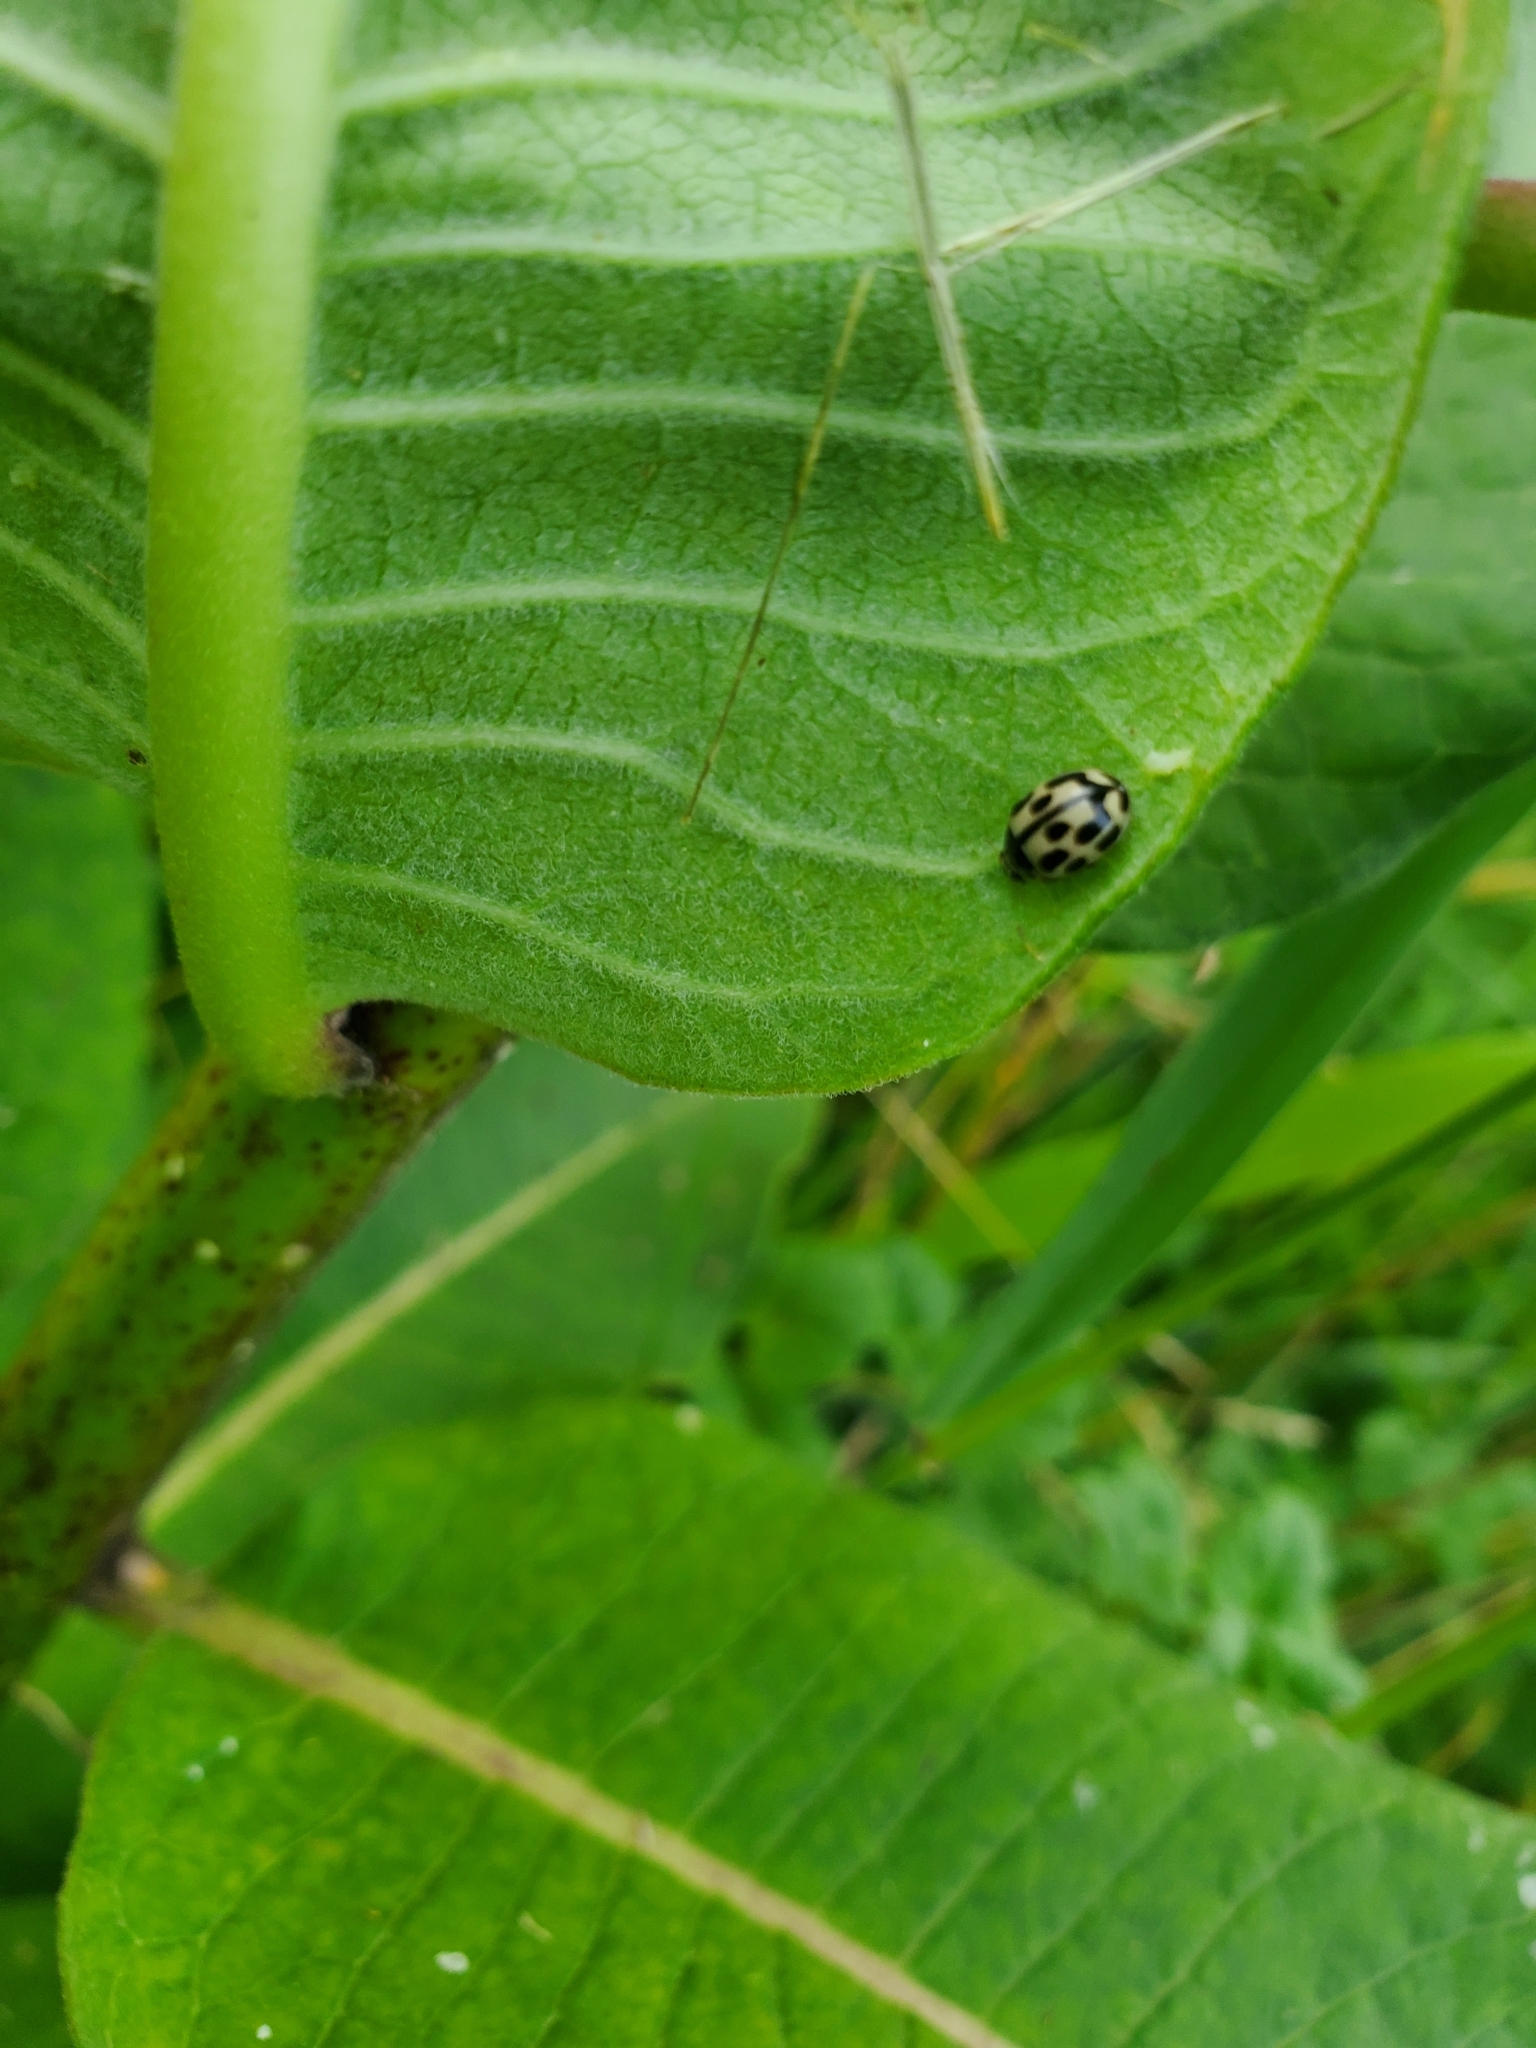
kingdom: Animalia
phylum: Arthropoda
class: Insecta
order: Coleoptera
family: Coccinellidae
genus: Propylaea
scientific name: Propylaea quatuordecimpunctata
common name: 14-spotted ladybird beetle
